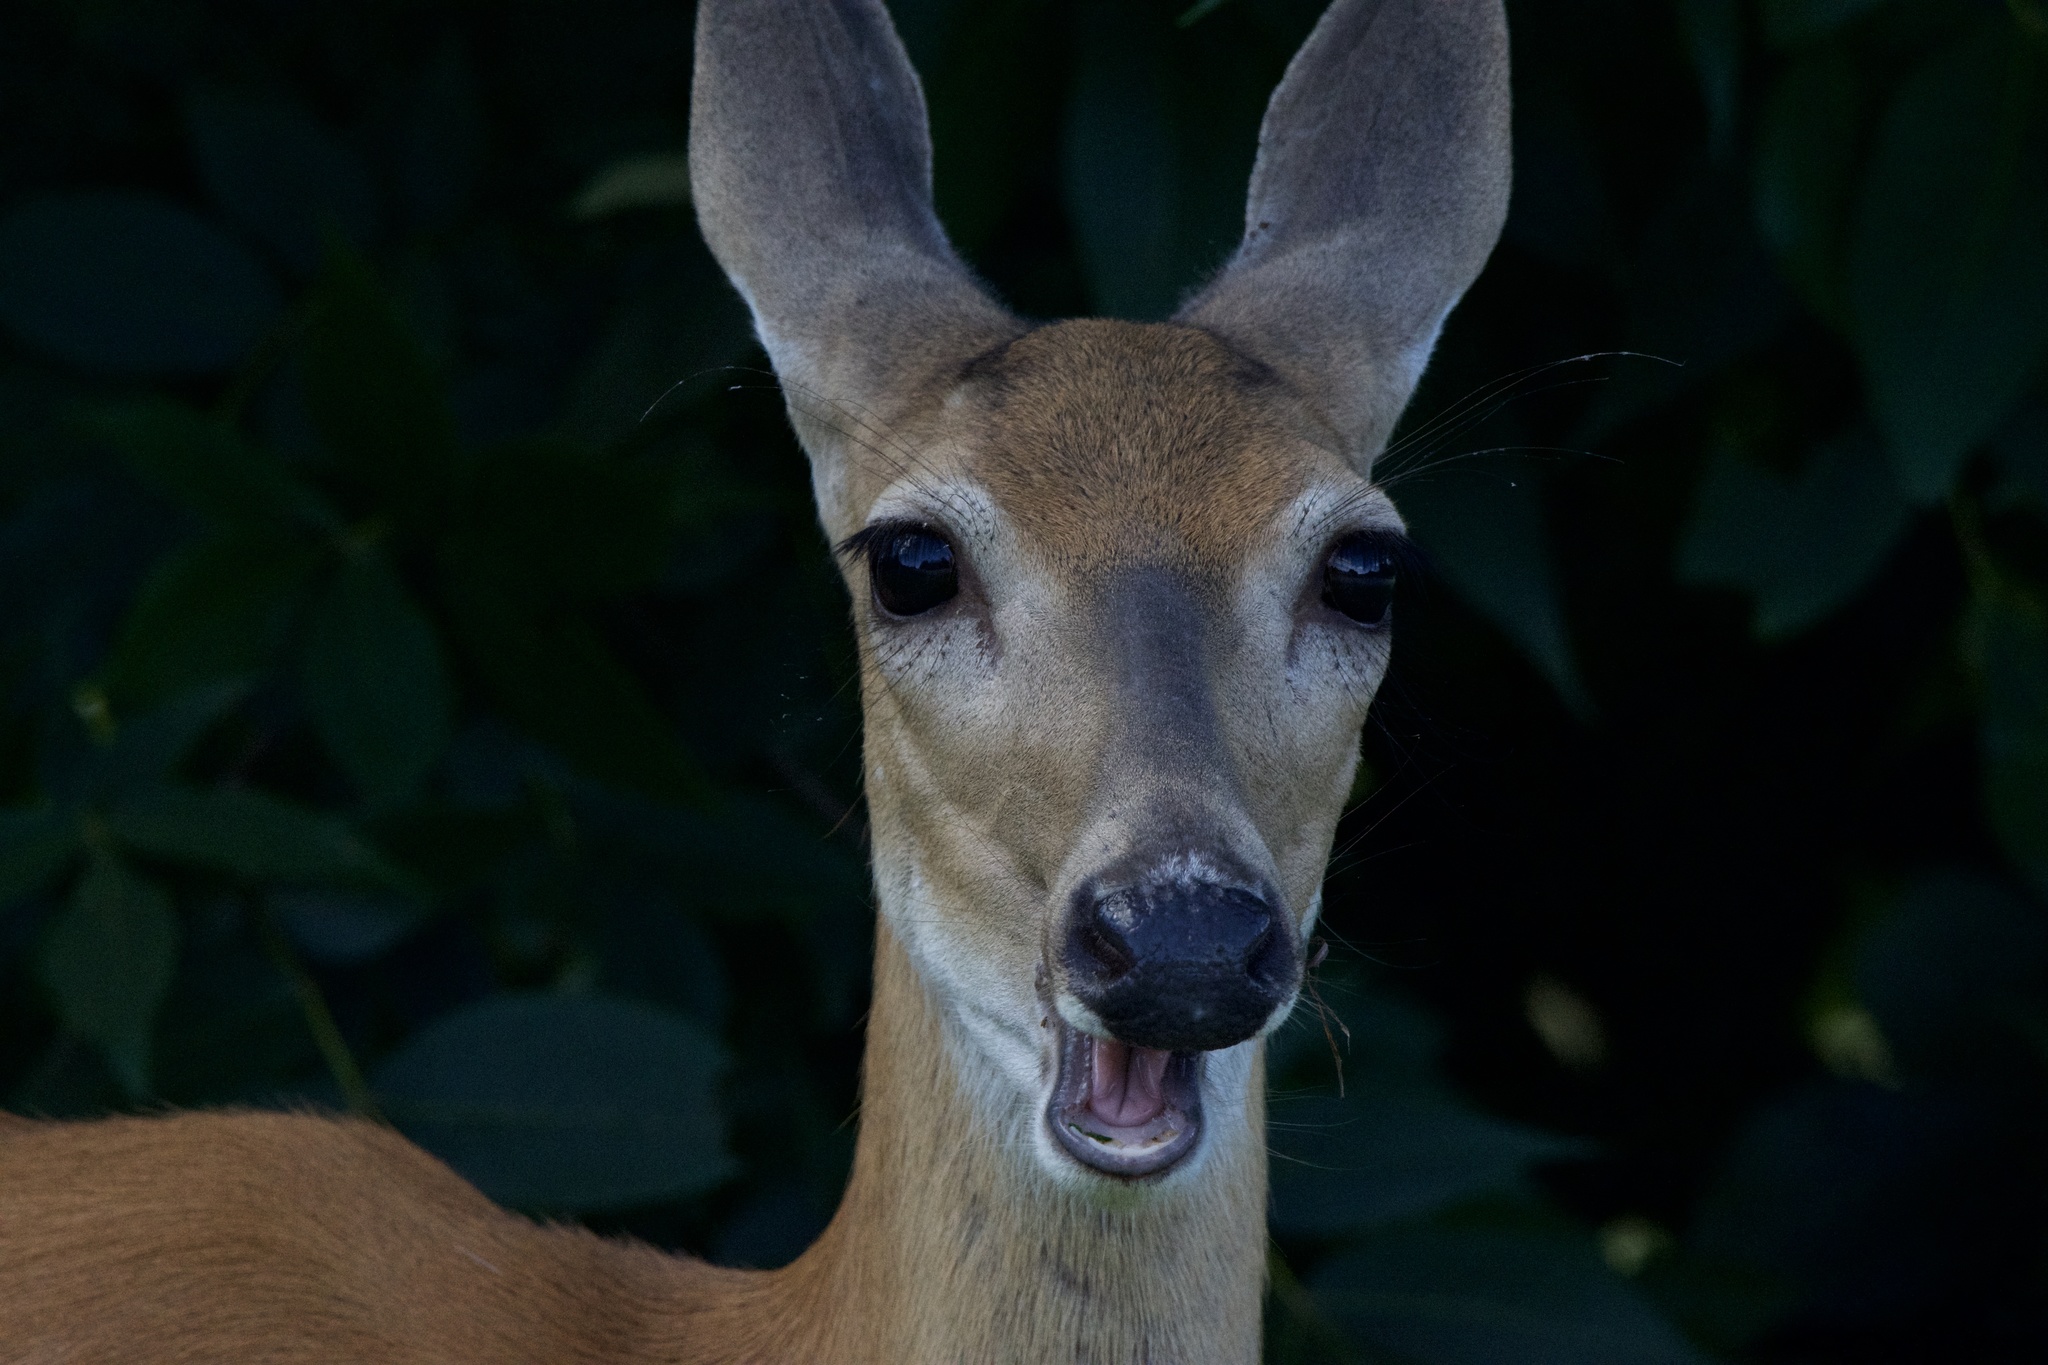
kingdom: Animalia
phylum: Chordata
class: Mammalia
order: Artiodactyla
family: Cervidae
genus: Odocoileus
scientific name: Odocoileus virginianus
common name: White-tailed deer
